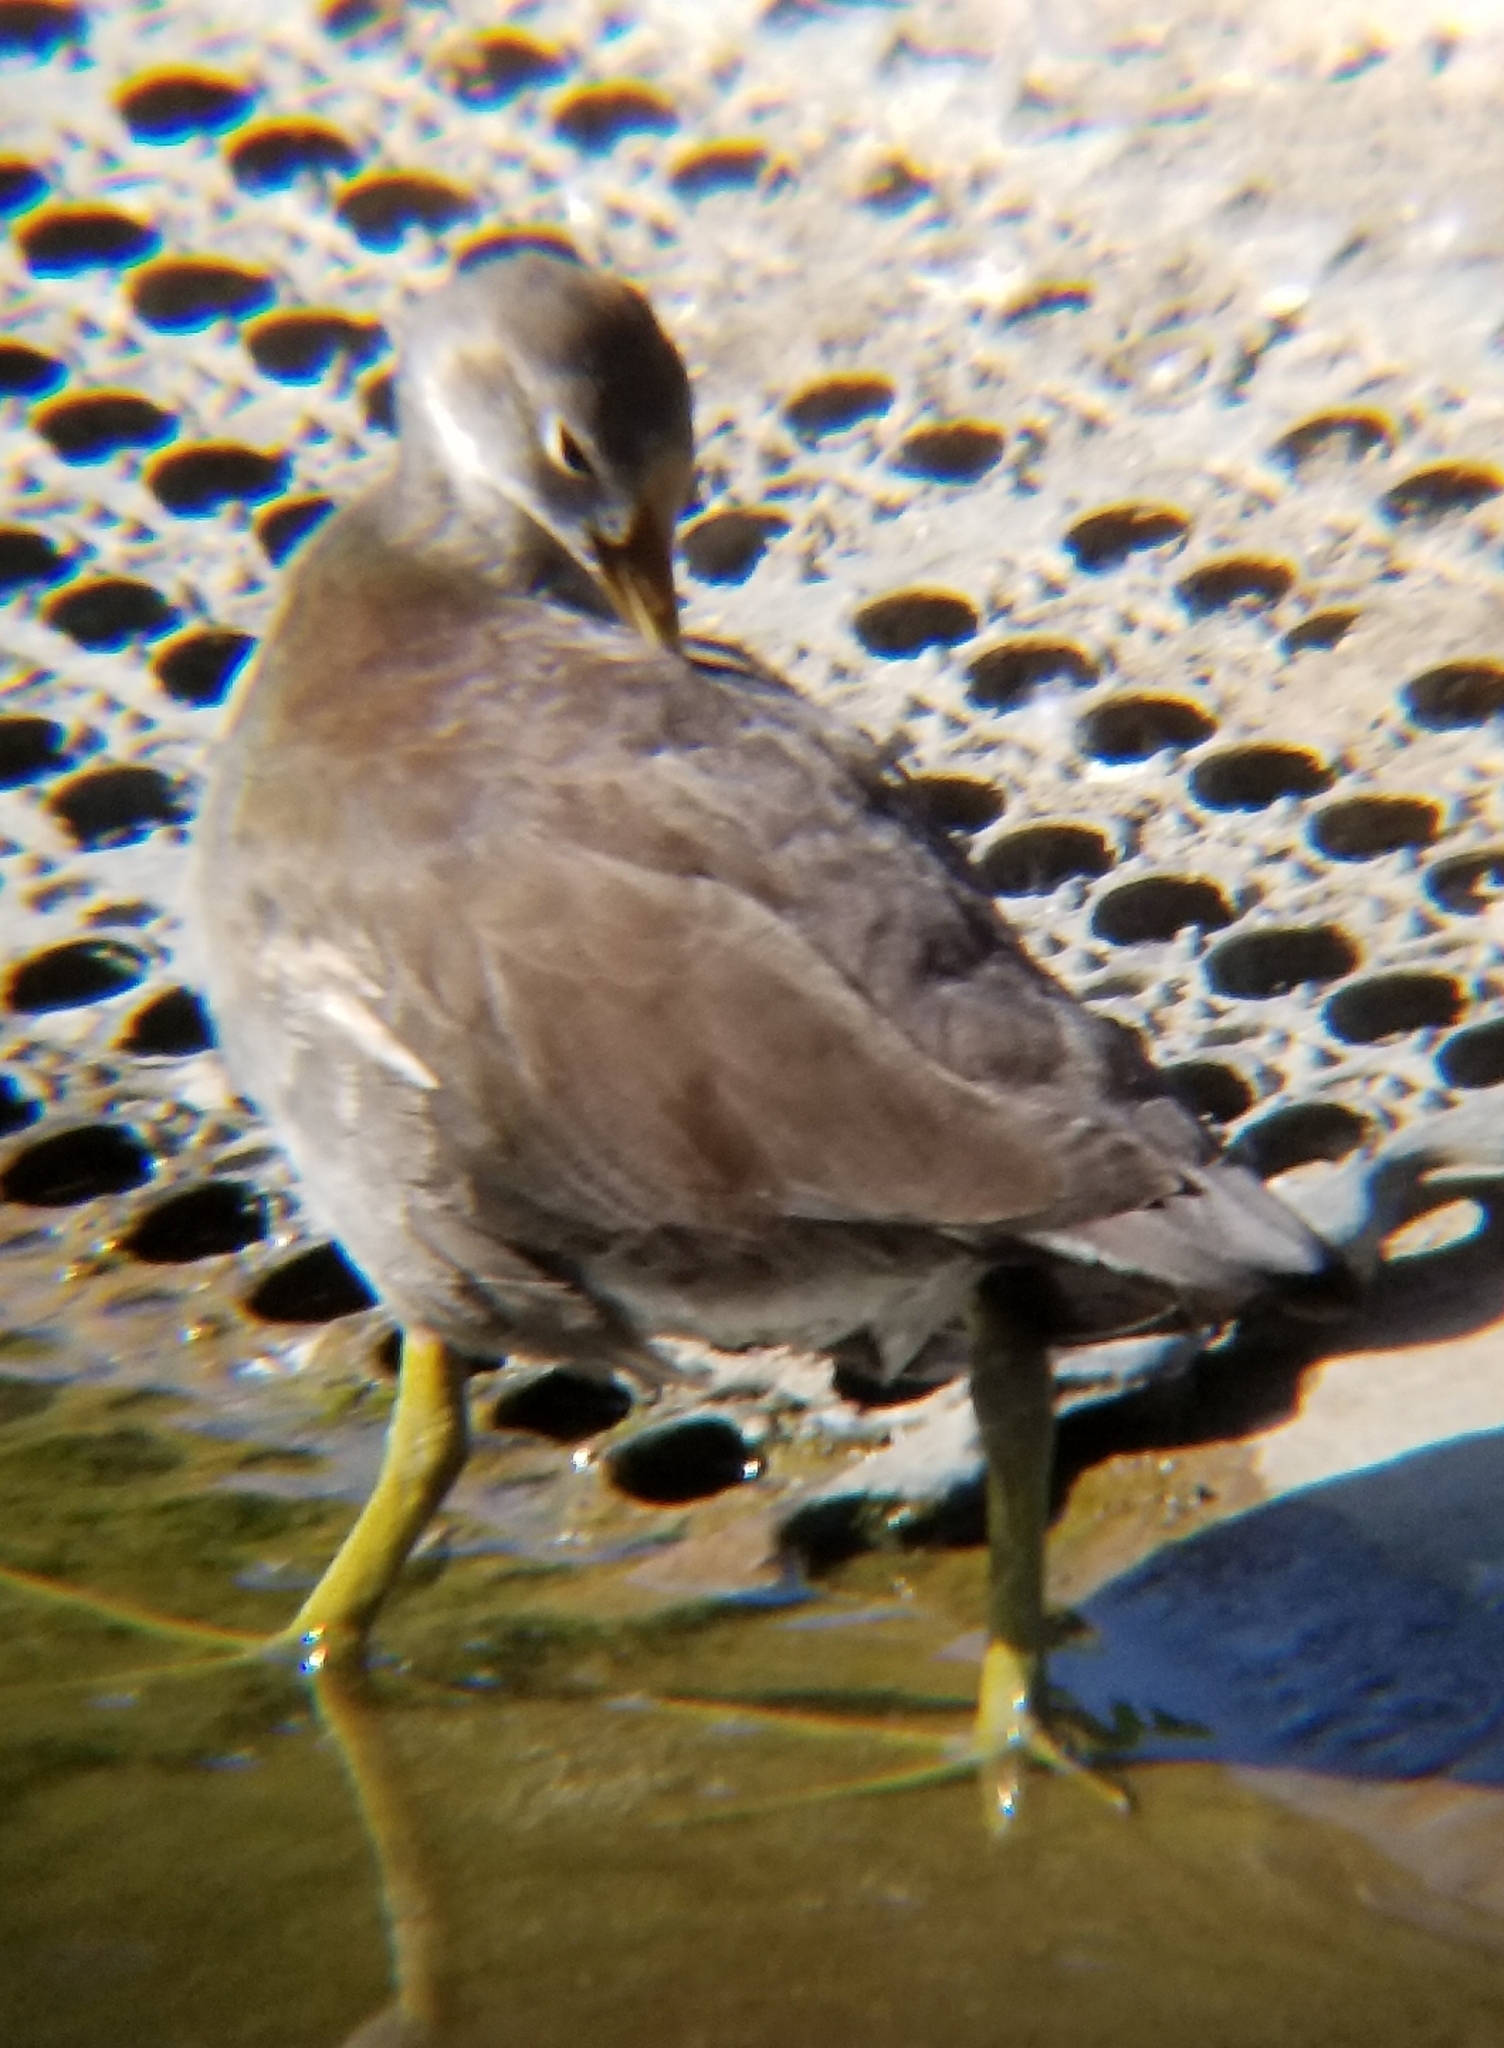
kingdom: Animalia
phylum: Chordata
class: Aves
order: Gruiformes
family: Rallidae
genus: Gallinula
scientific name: Gallinula chloropus
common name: Common moorhen
